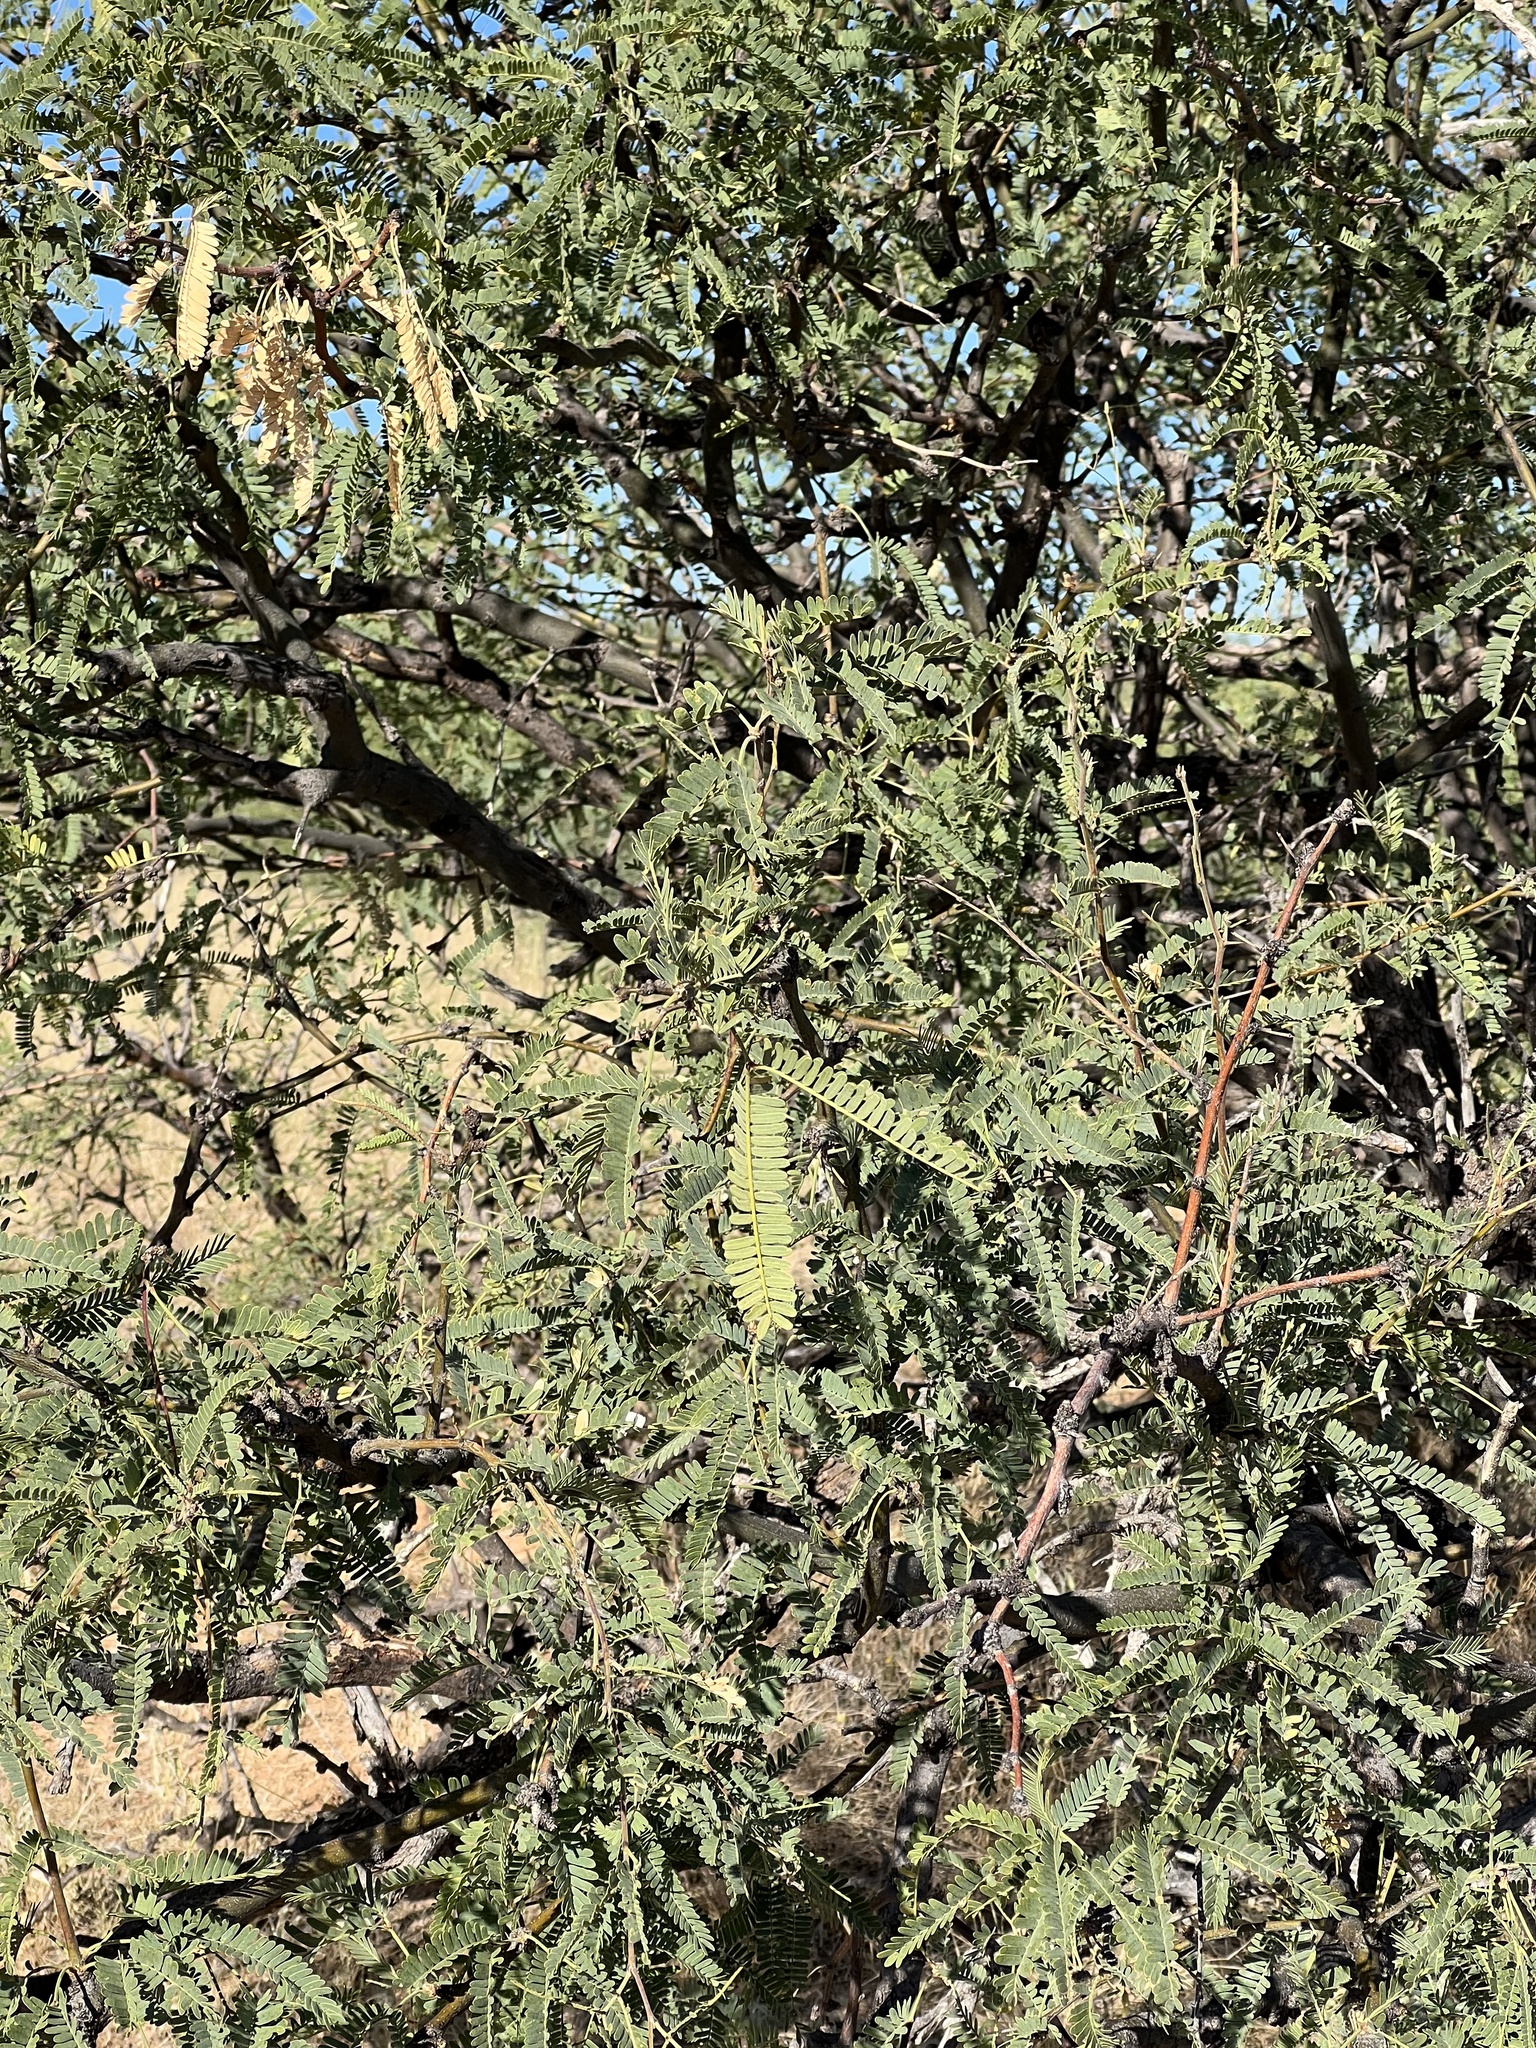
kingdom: Plantae
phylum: Tracheophyta
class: Magnoliopsida
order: Fabales
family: Fabaceae
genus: Prosopis
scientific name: Prosopis velutina
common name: Velvet mesquite
